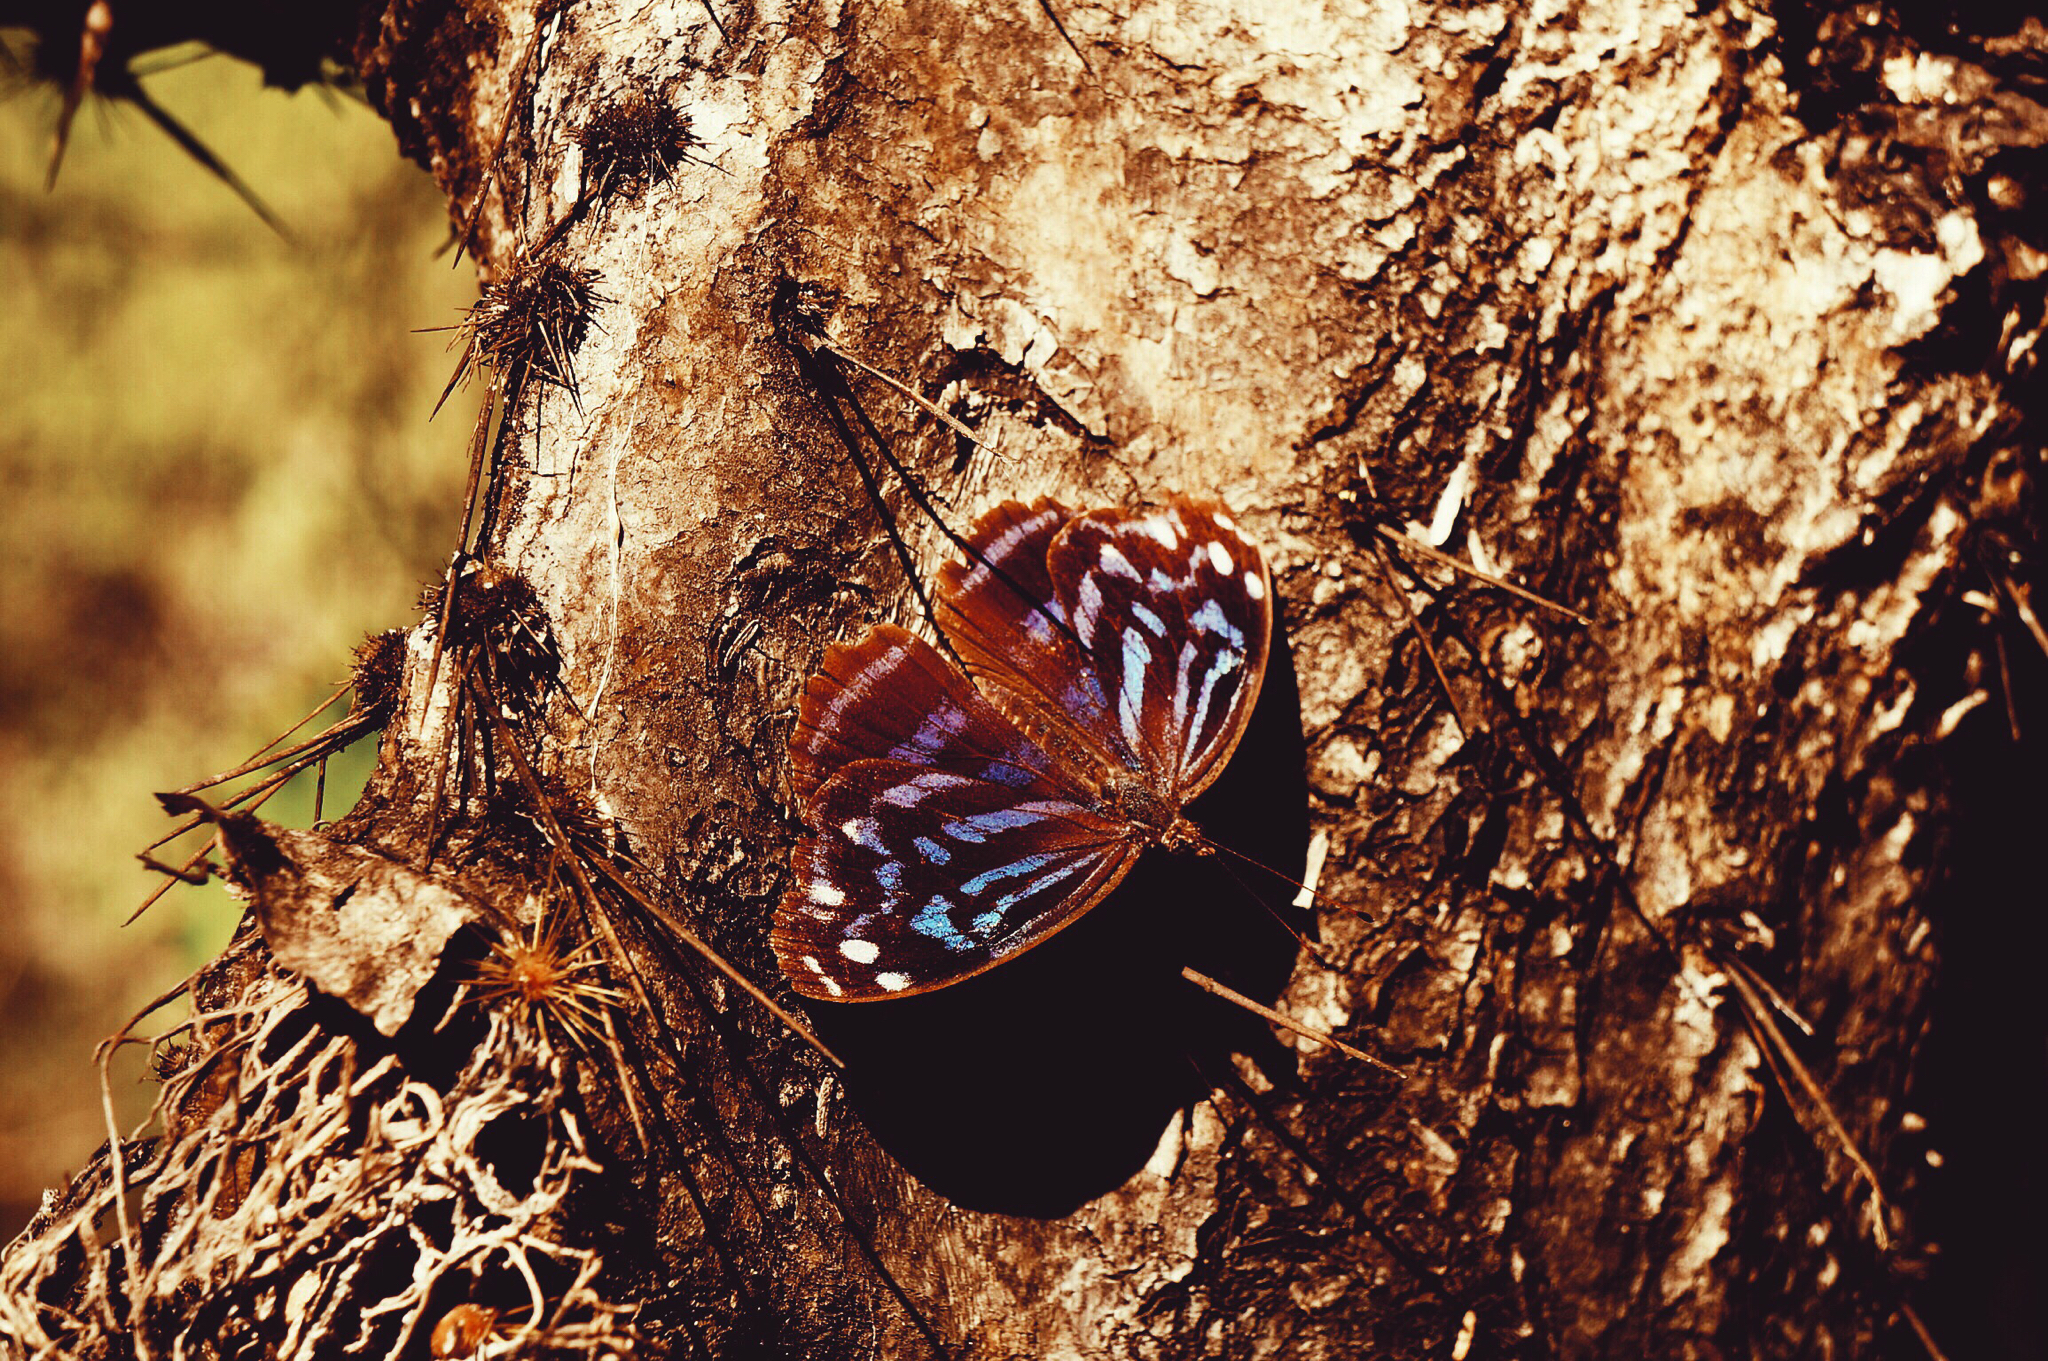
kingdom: Animalia
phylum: Arthropoda
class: Insecta
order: Lepidoptera
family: Nymphalidae
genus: Myscelia
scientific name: Myscelia ethusa
